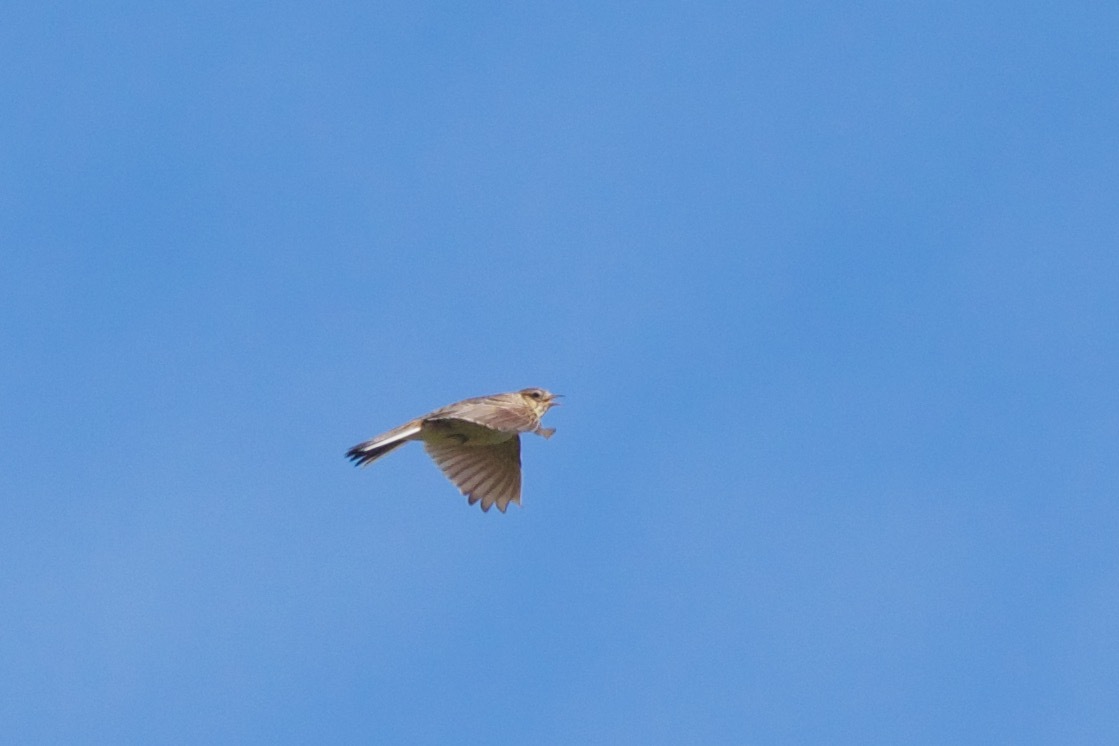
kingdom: Animalia
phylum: Chordata
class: Aves
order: Passeriformes
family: Alaudidae
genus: Alauda
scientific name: Alauda arvensis
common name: Eurasian skylark
